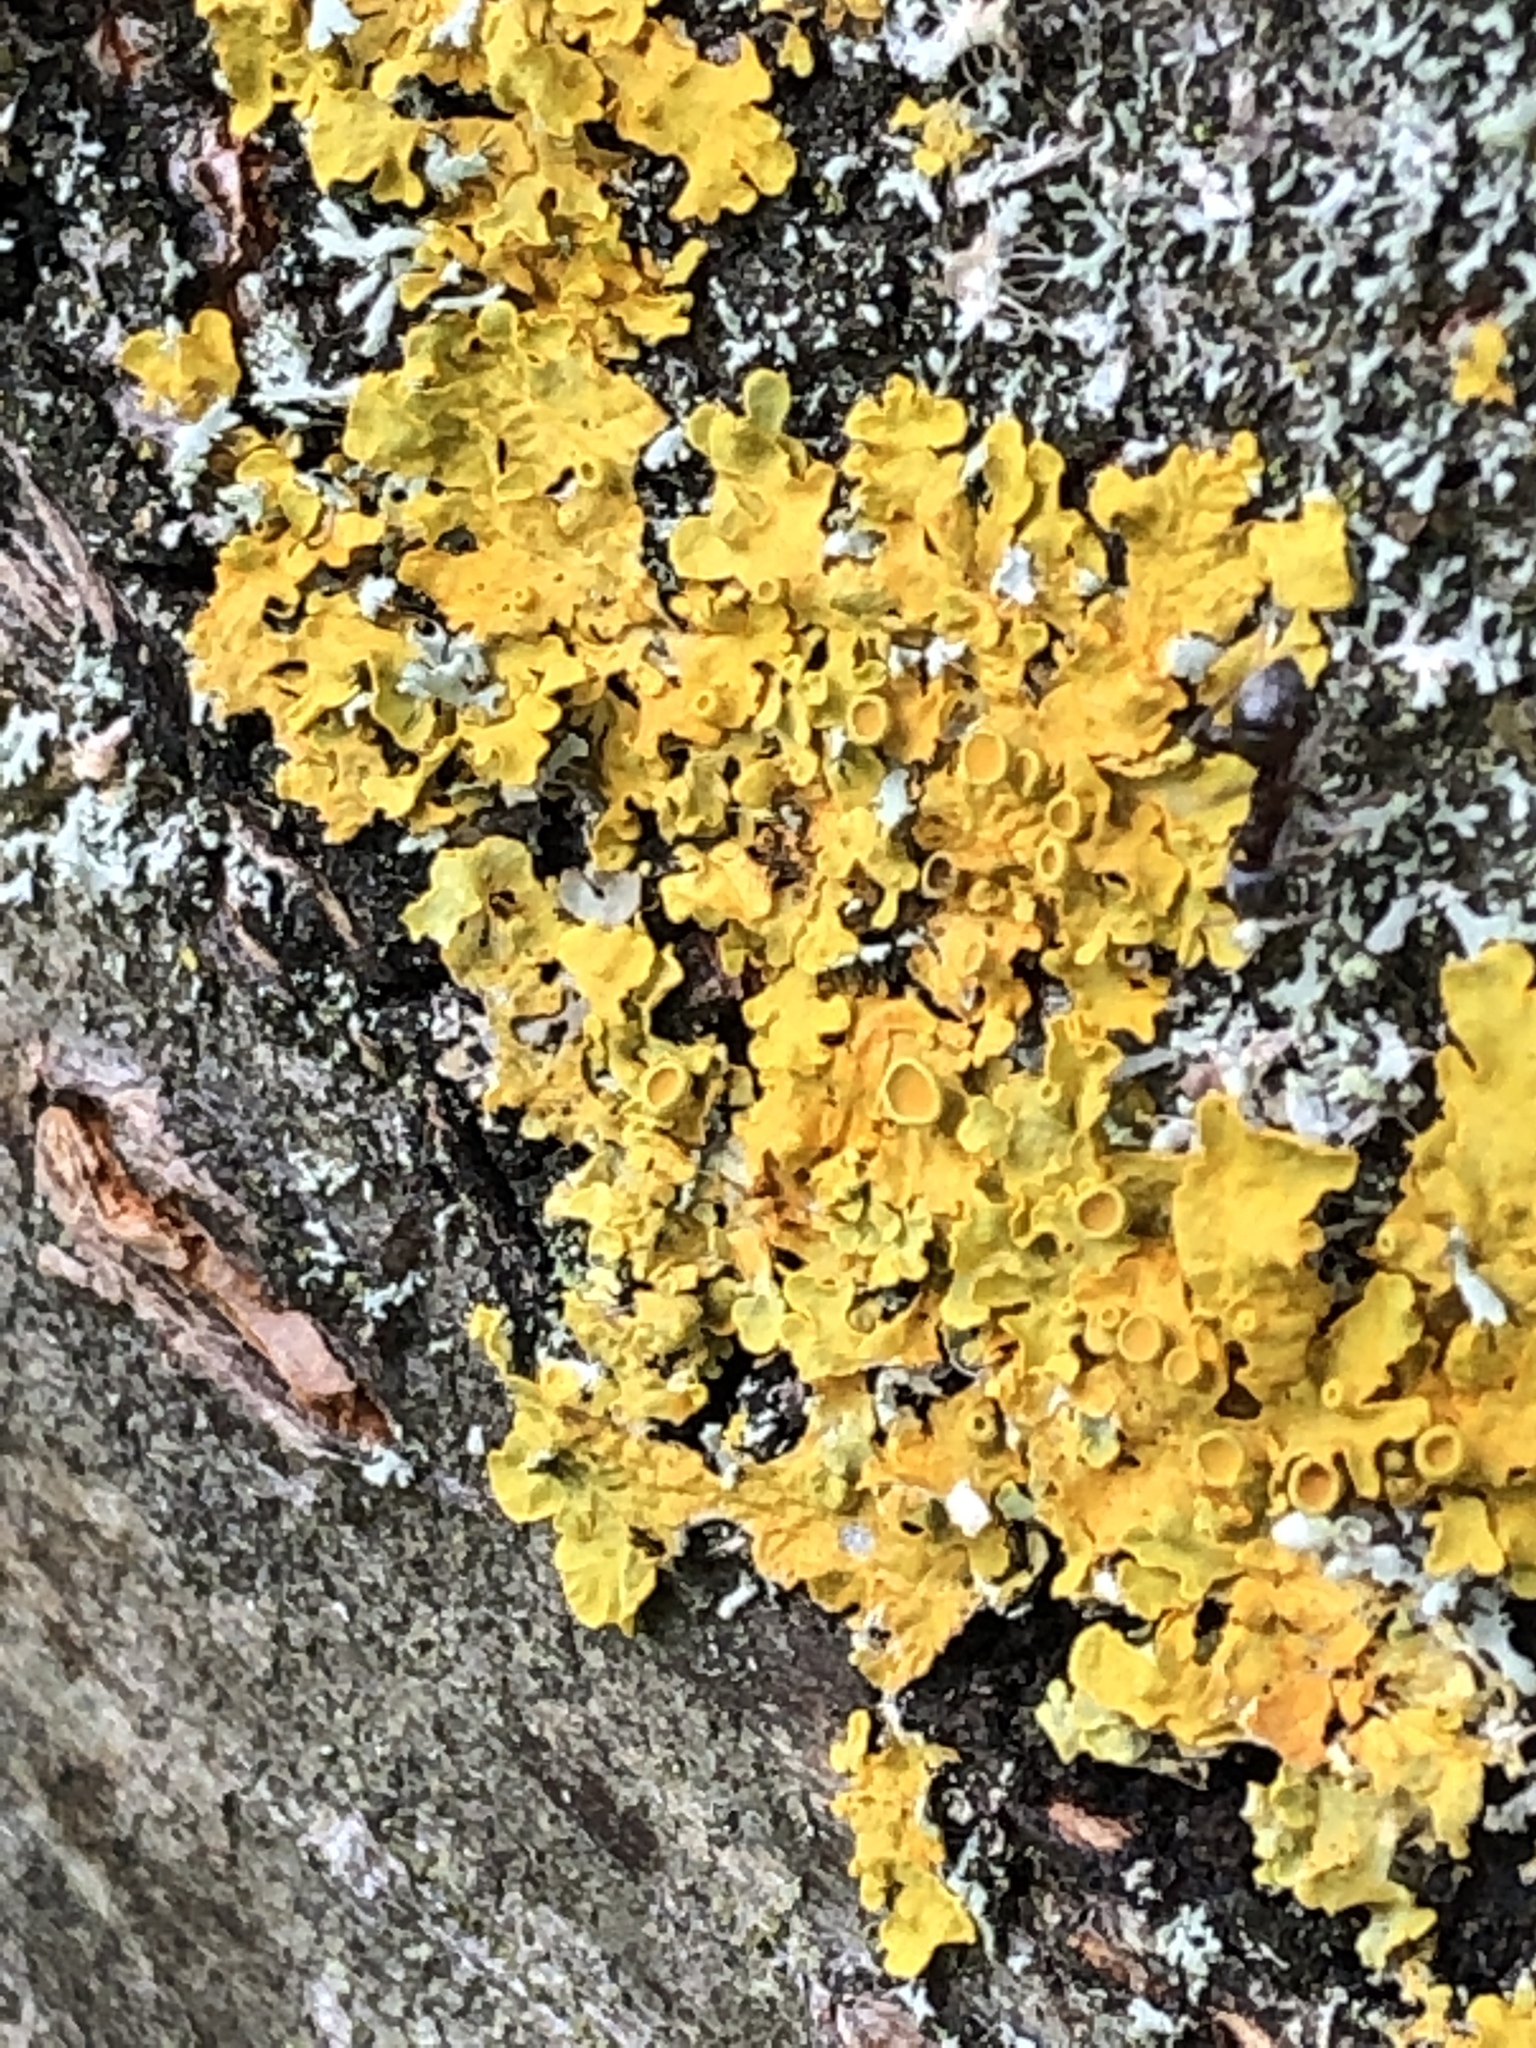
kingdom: Fungi
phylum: Ascomycota
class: Lecanoromycetes
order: Teloschistales
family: Teloschistaceae
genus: Xanthoria
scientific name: Xanthoria parietina
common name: Common orange lichen
